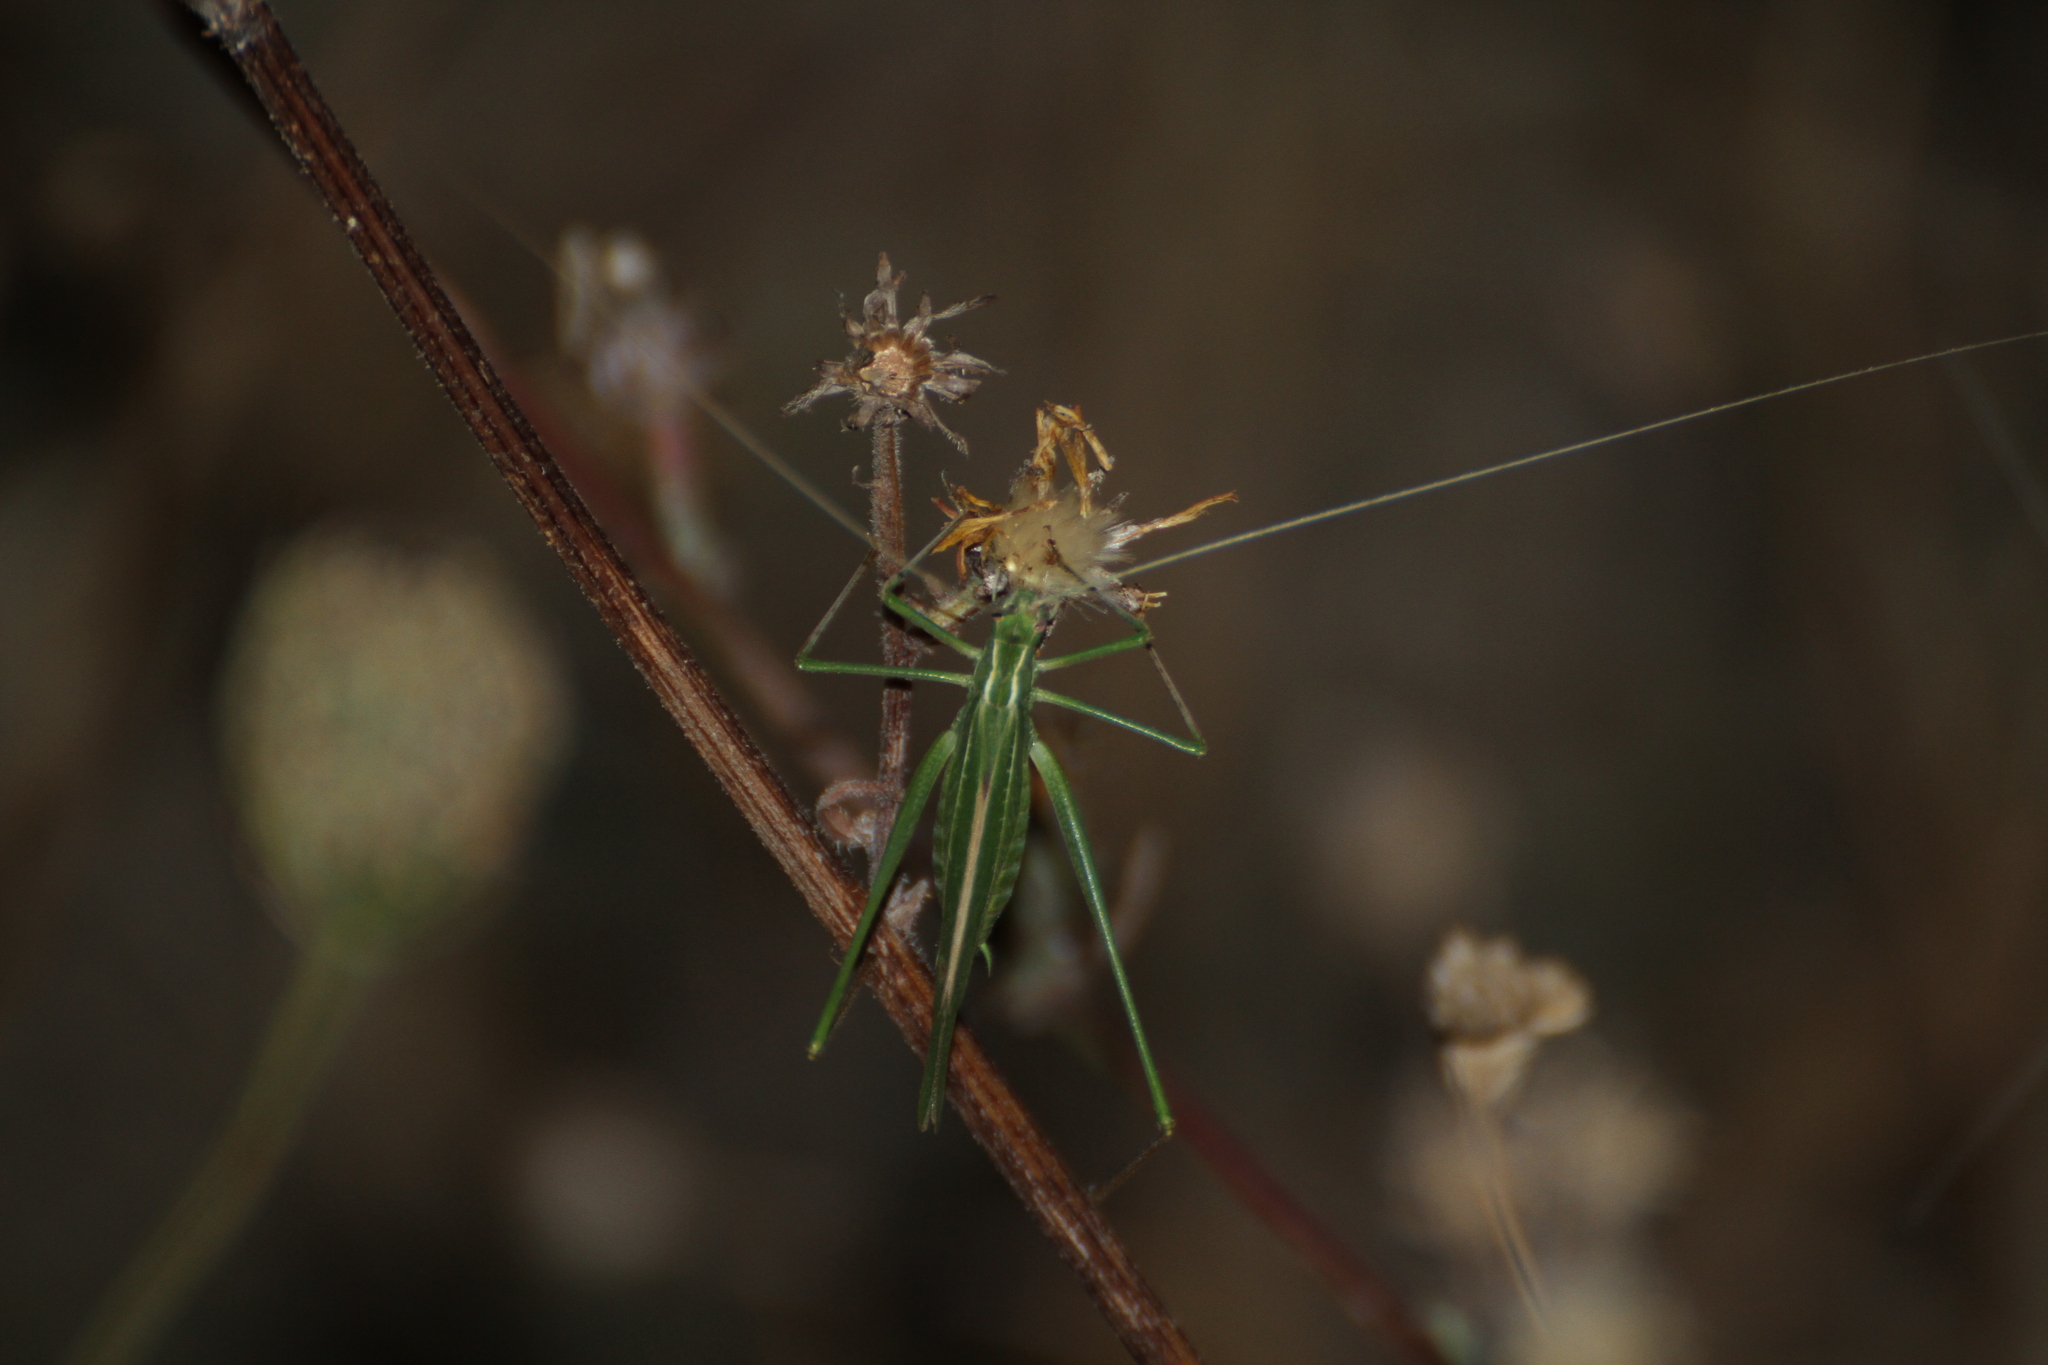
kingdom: Animalia
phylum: Arthropoda
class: Insecta
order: Orthoptera
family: Tettigoniidae
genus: Tylopsis
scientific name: Tylopsis lilifolia
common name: Lily bush-cricket
